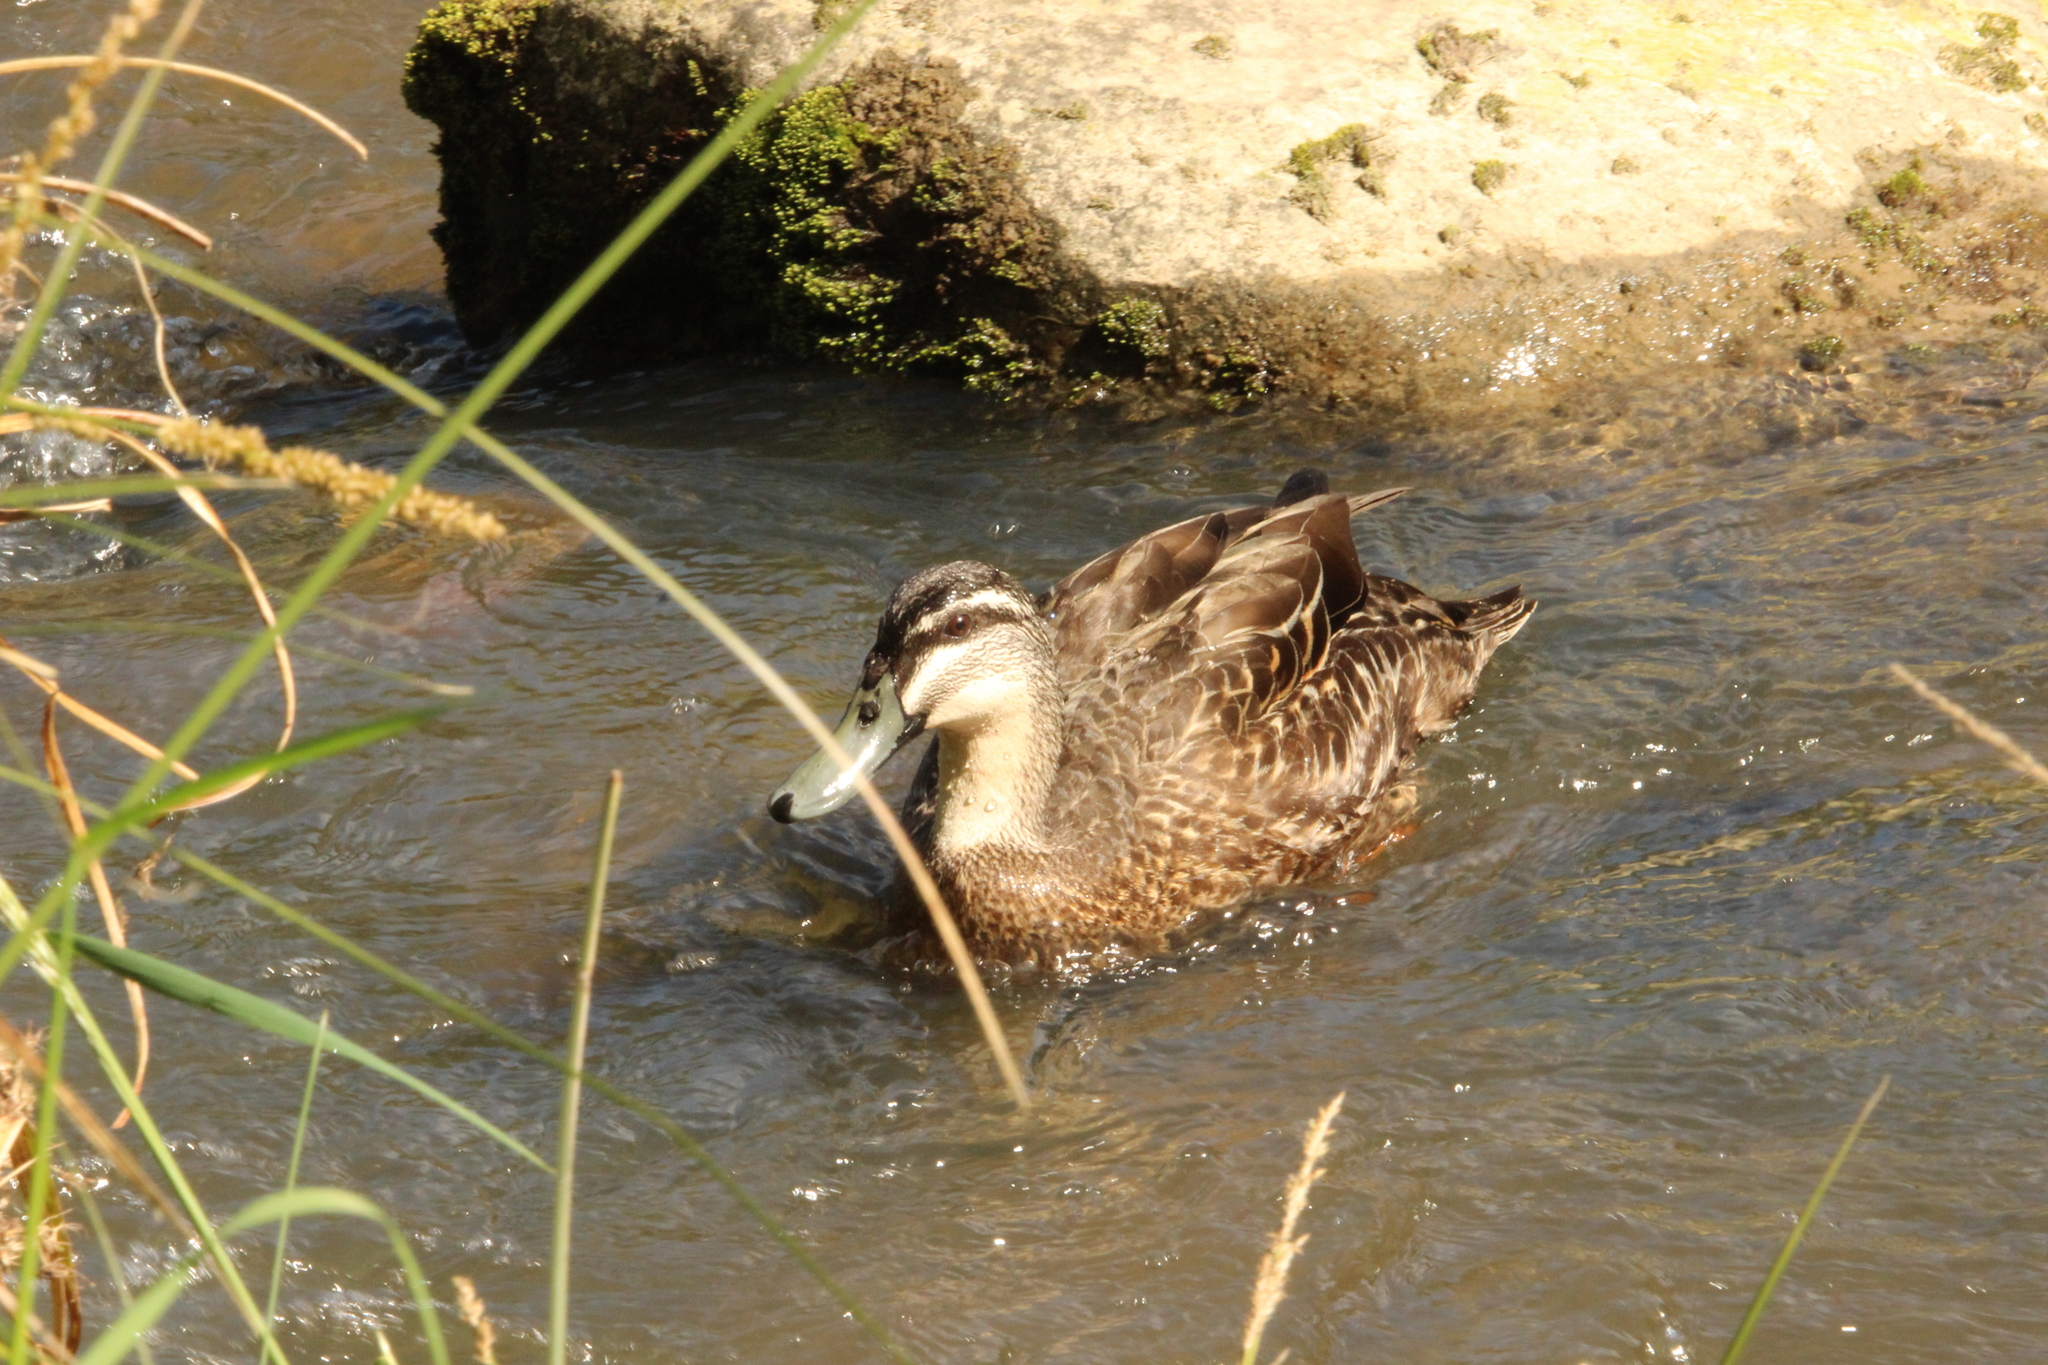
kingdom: Animalia
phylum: Chordata
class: Aves
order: Anseriformes
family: Anatidae
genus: Anas
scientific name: Anas
